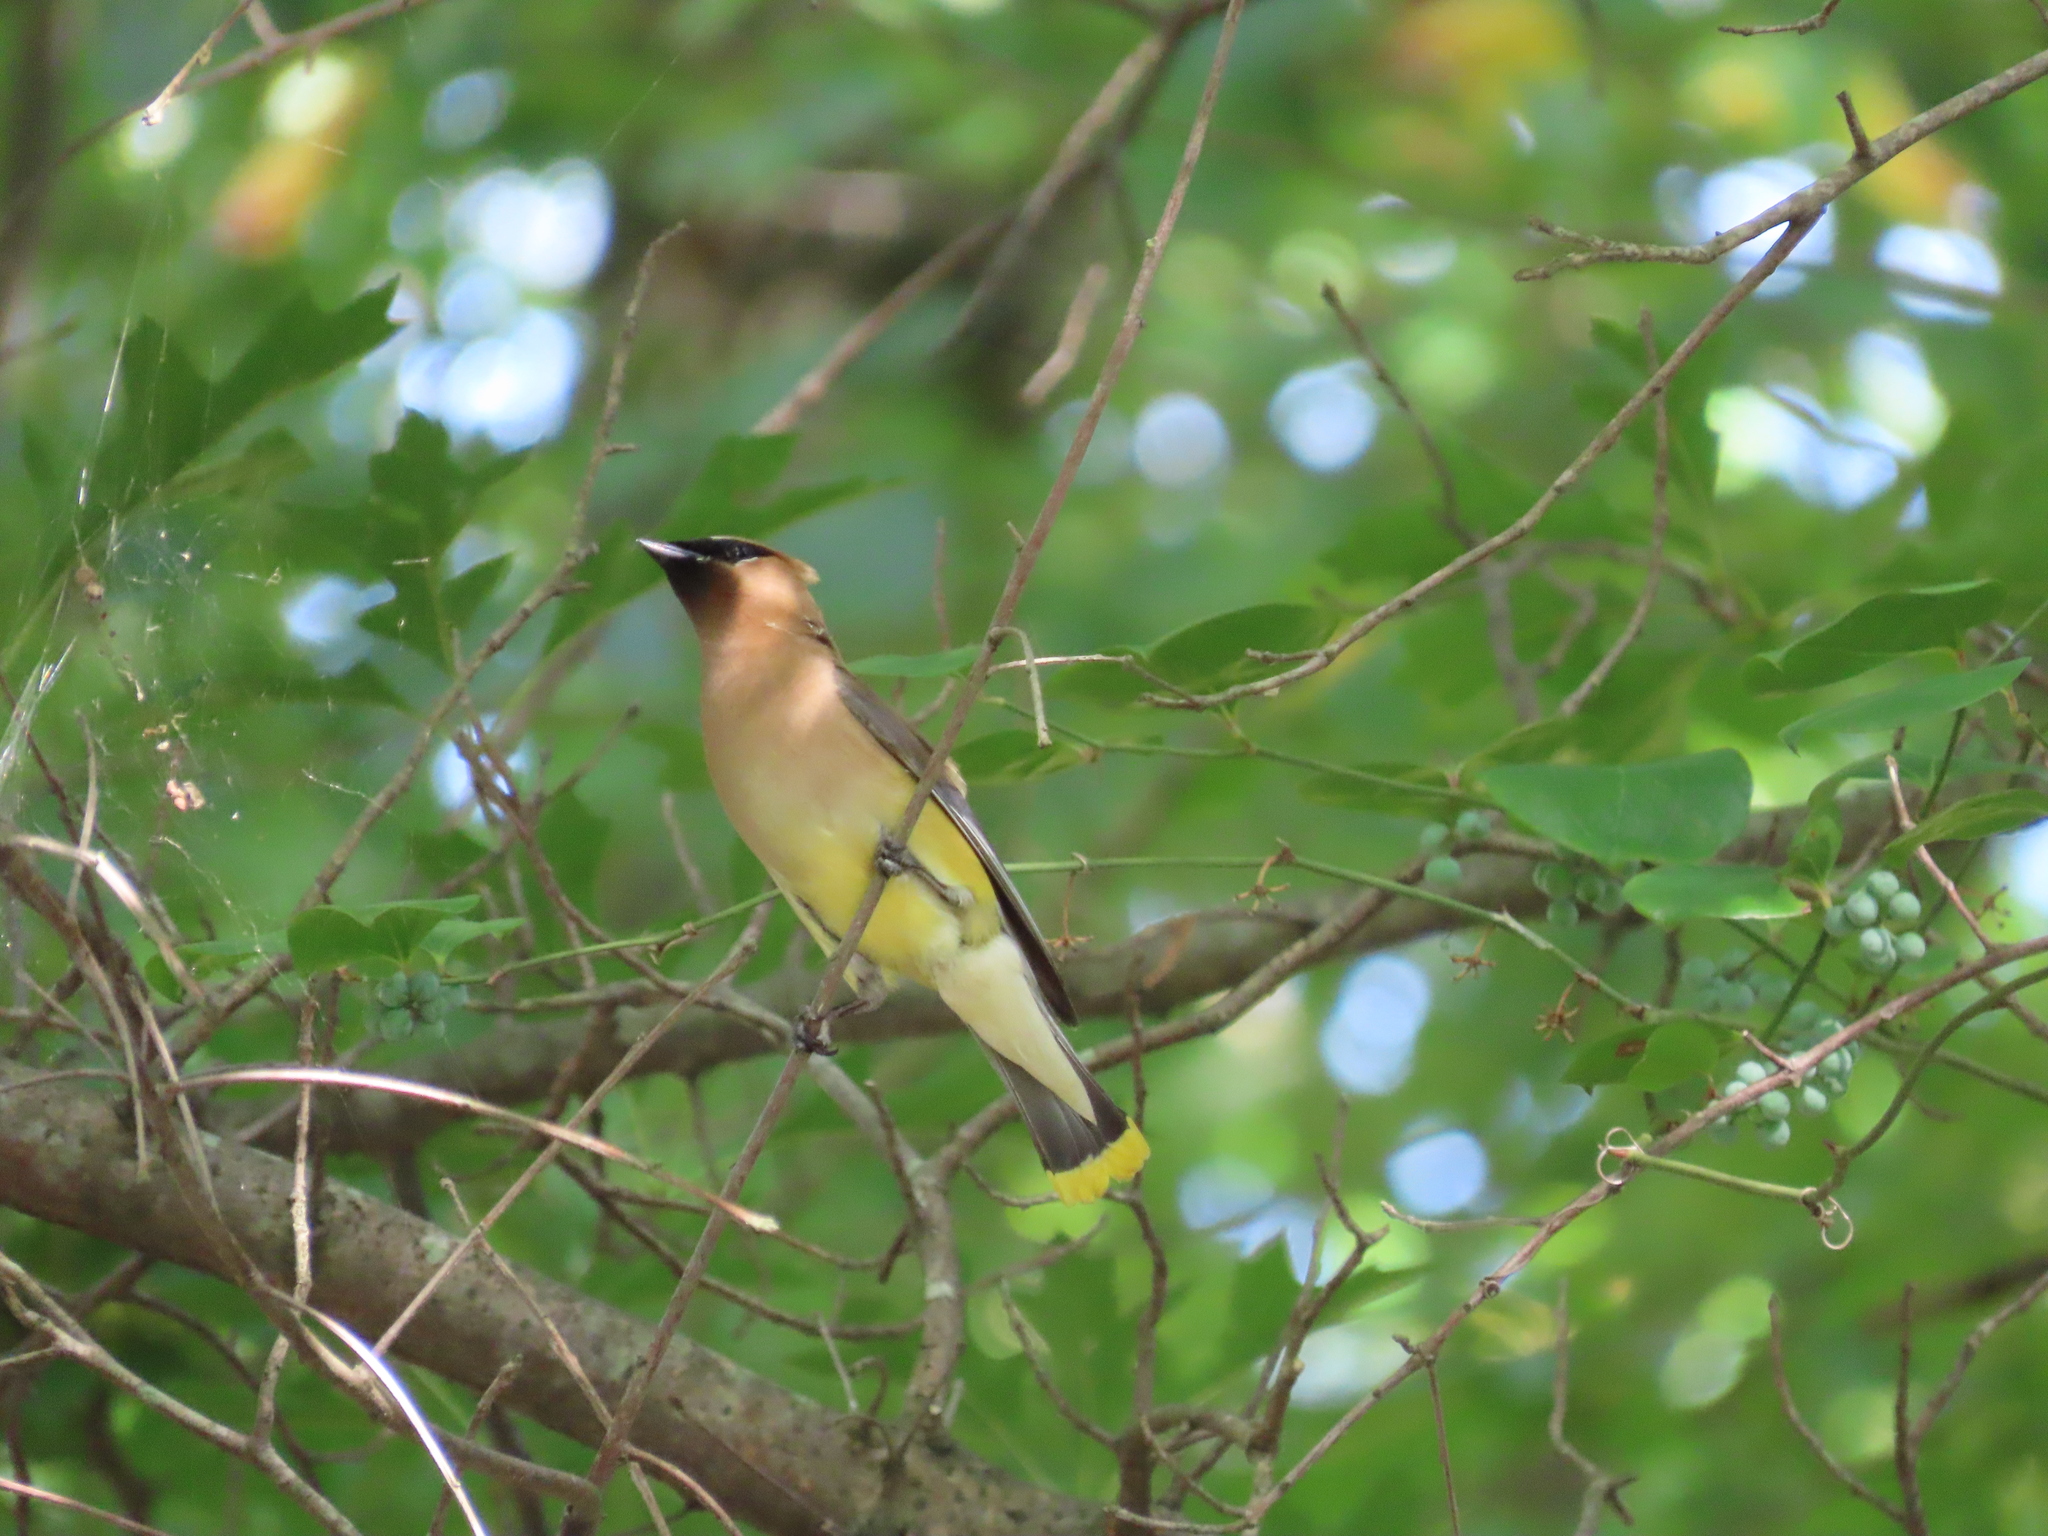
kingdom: Animalia
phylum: Chordata
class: Aves
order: Passeriformes
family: Bombycillidae
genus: Bombycilla
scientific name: Bombycilla cedrorum
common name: Cedar waxwing
